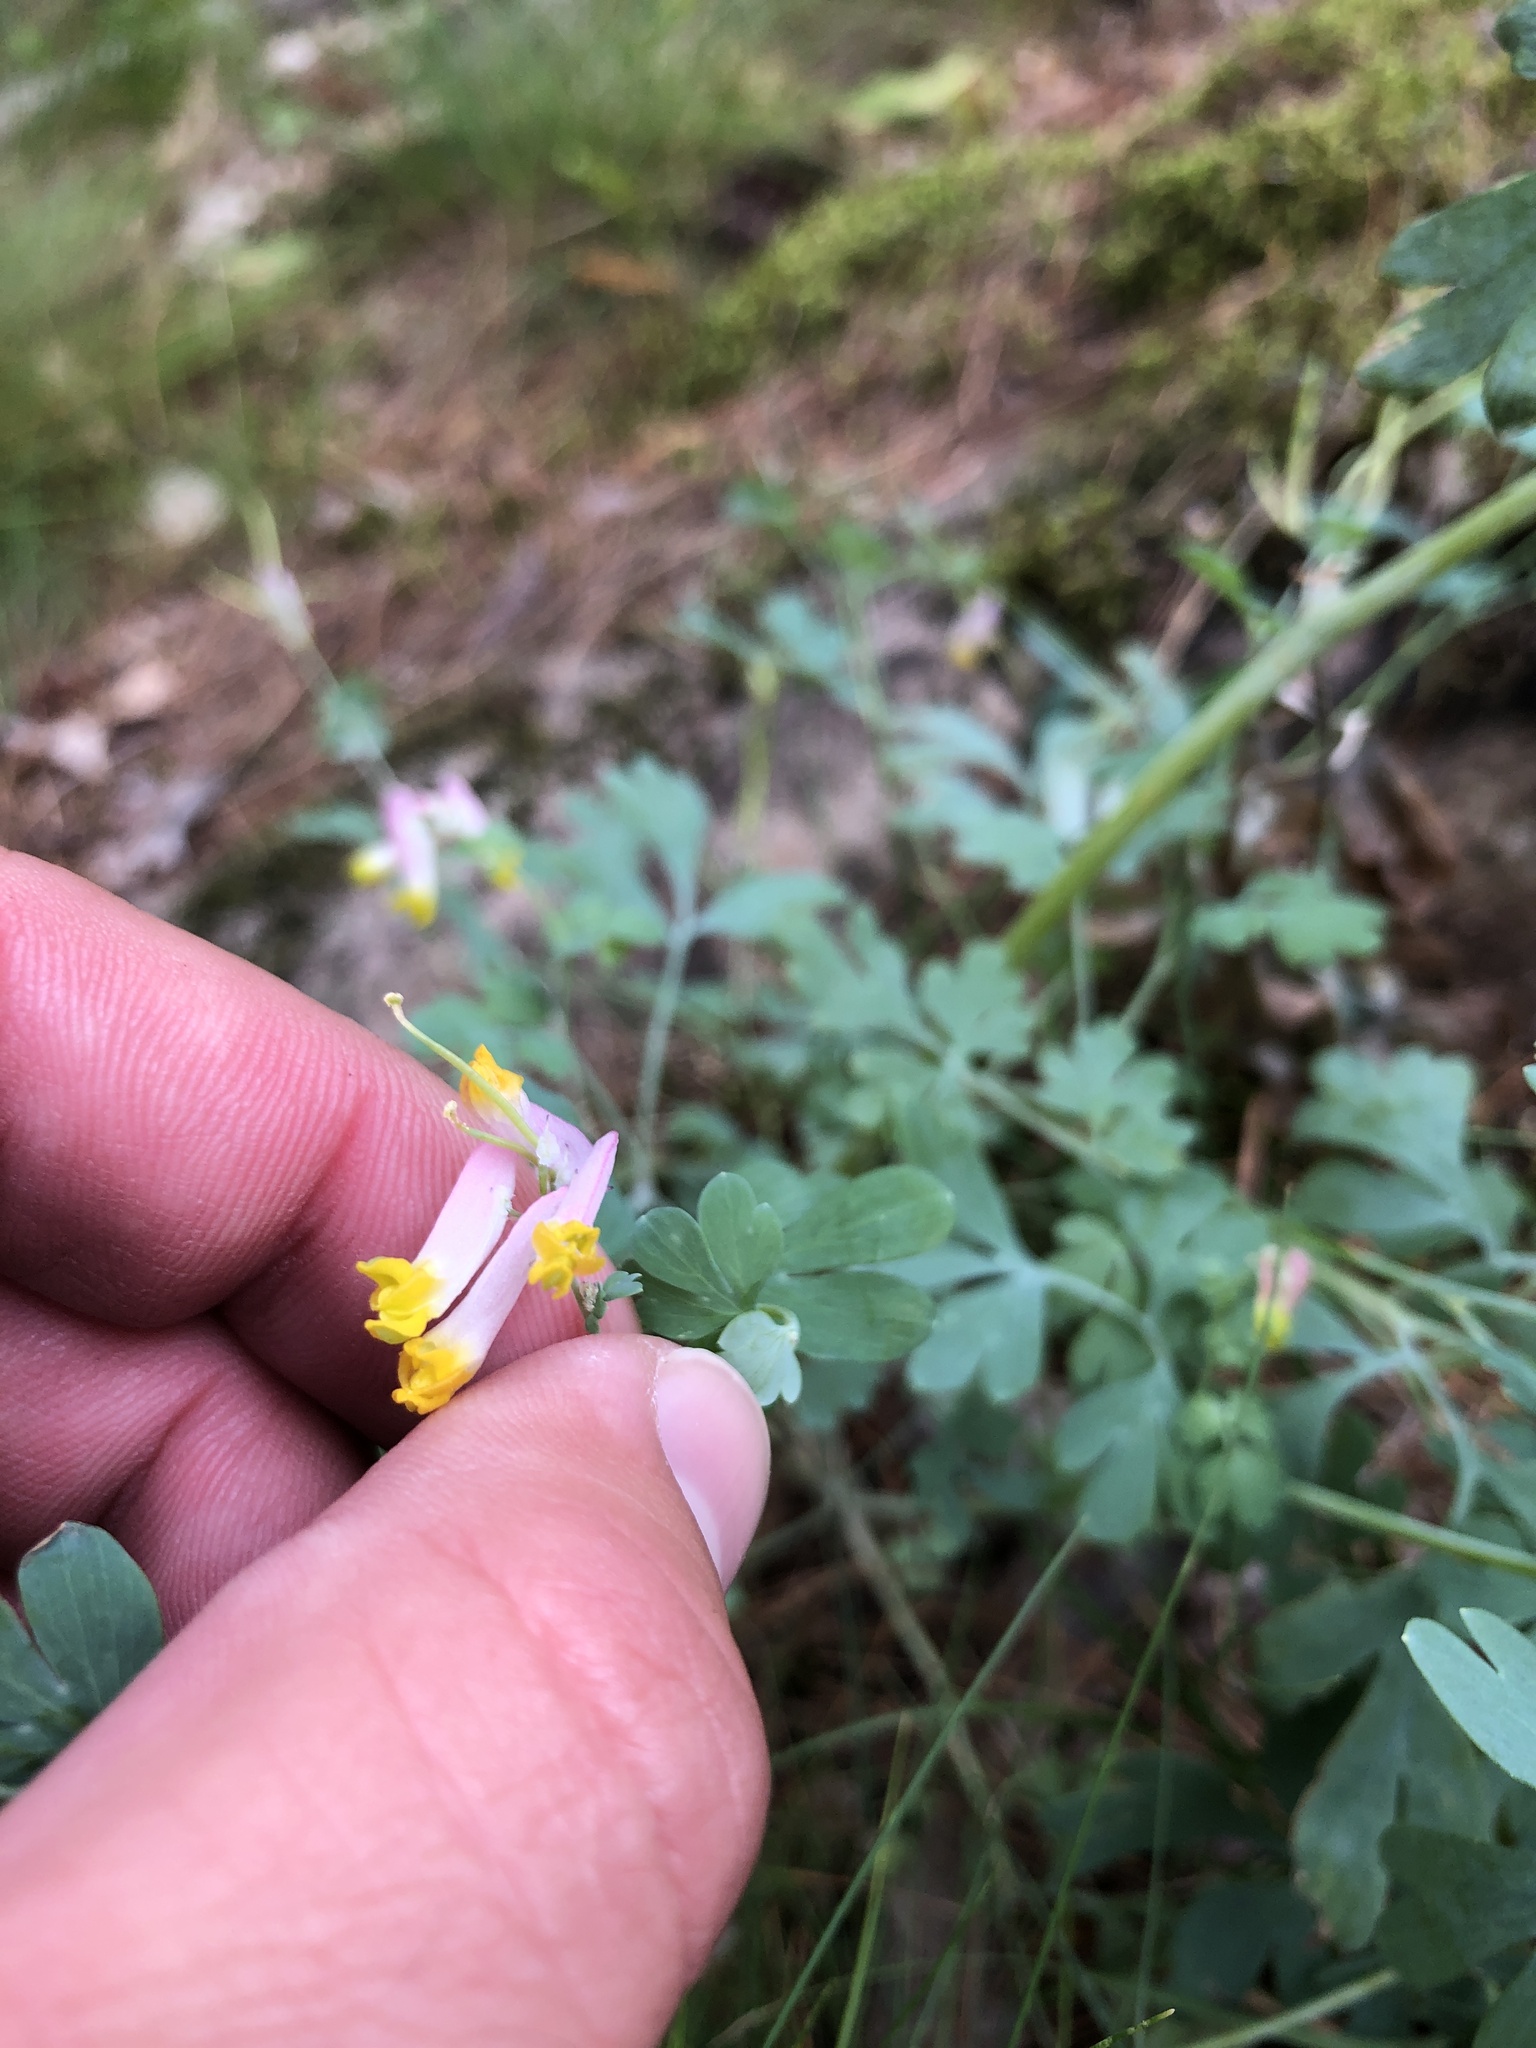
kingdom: Plantae
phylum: Tracheophyta
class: Magnoliopsida
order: Ranunculales
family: Papaveraceae
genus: Capnoides
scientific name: Capnoides sempervirens
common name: Rock harlequin
